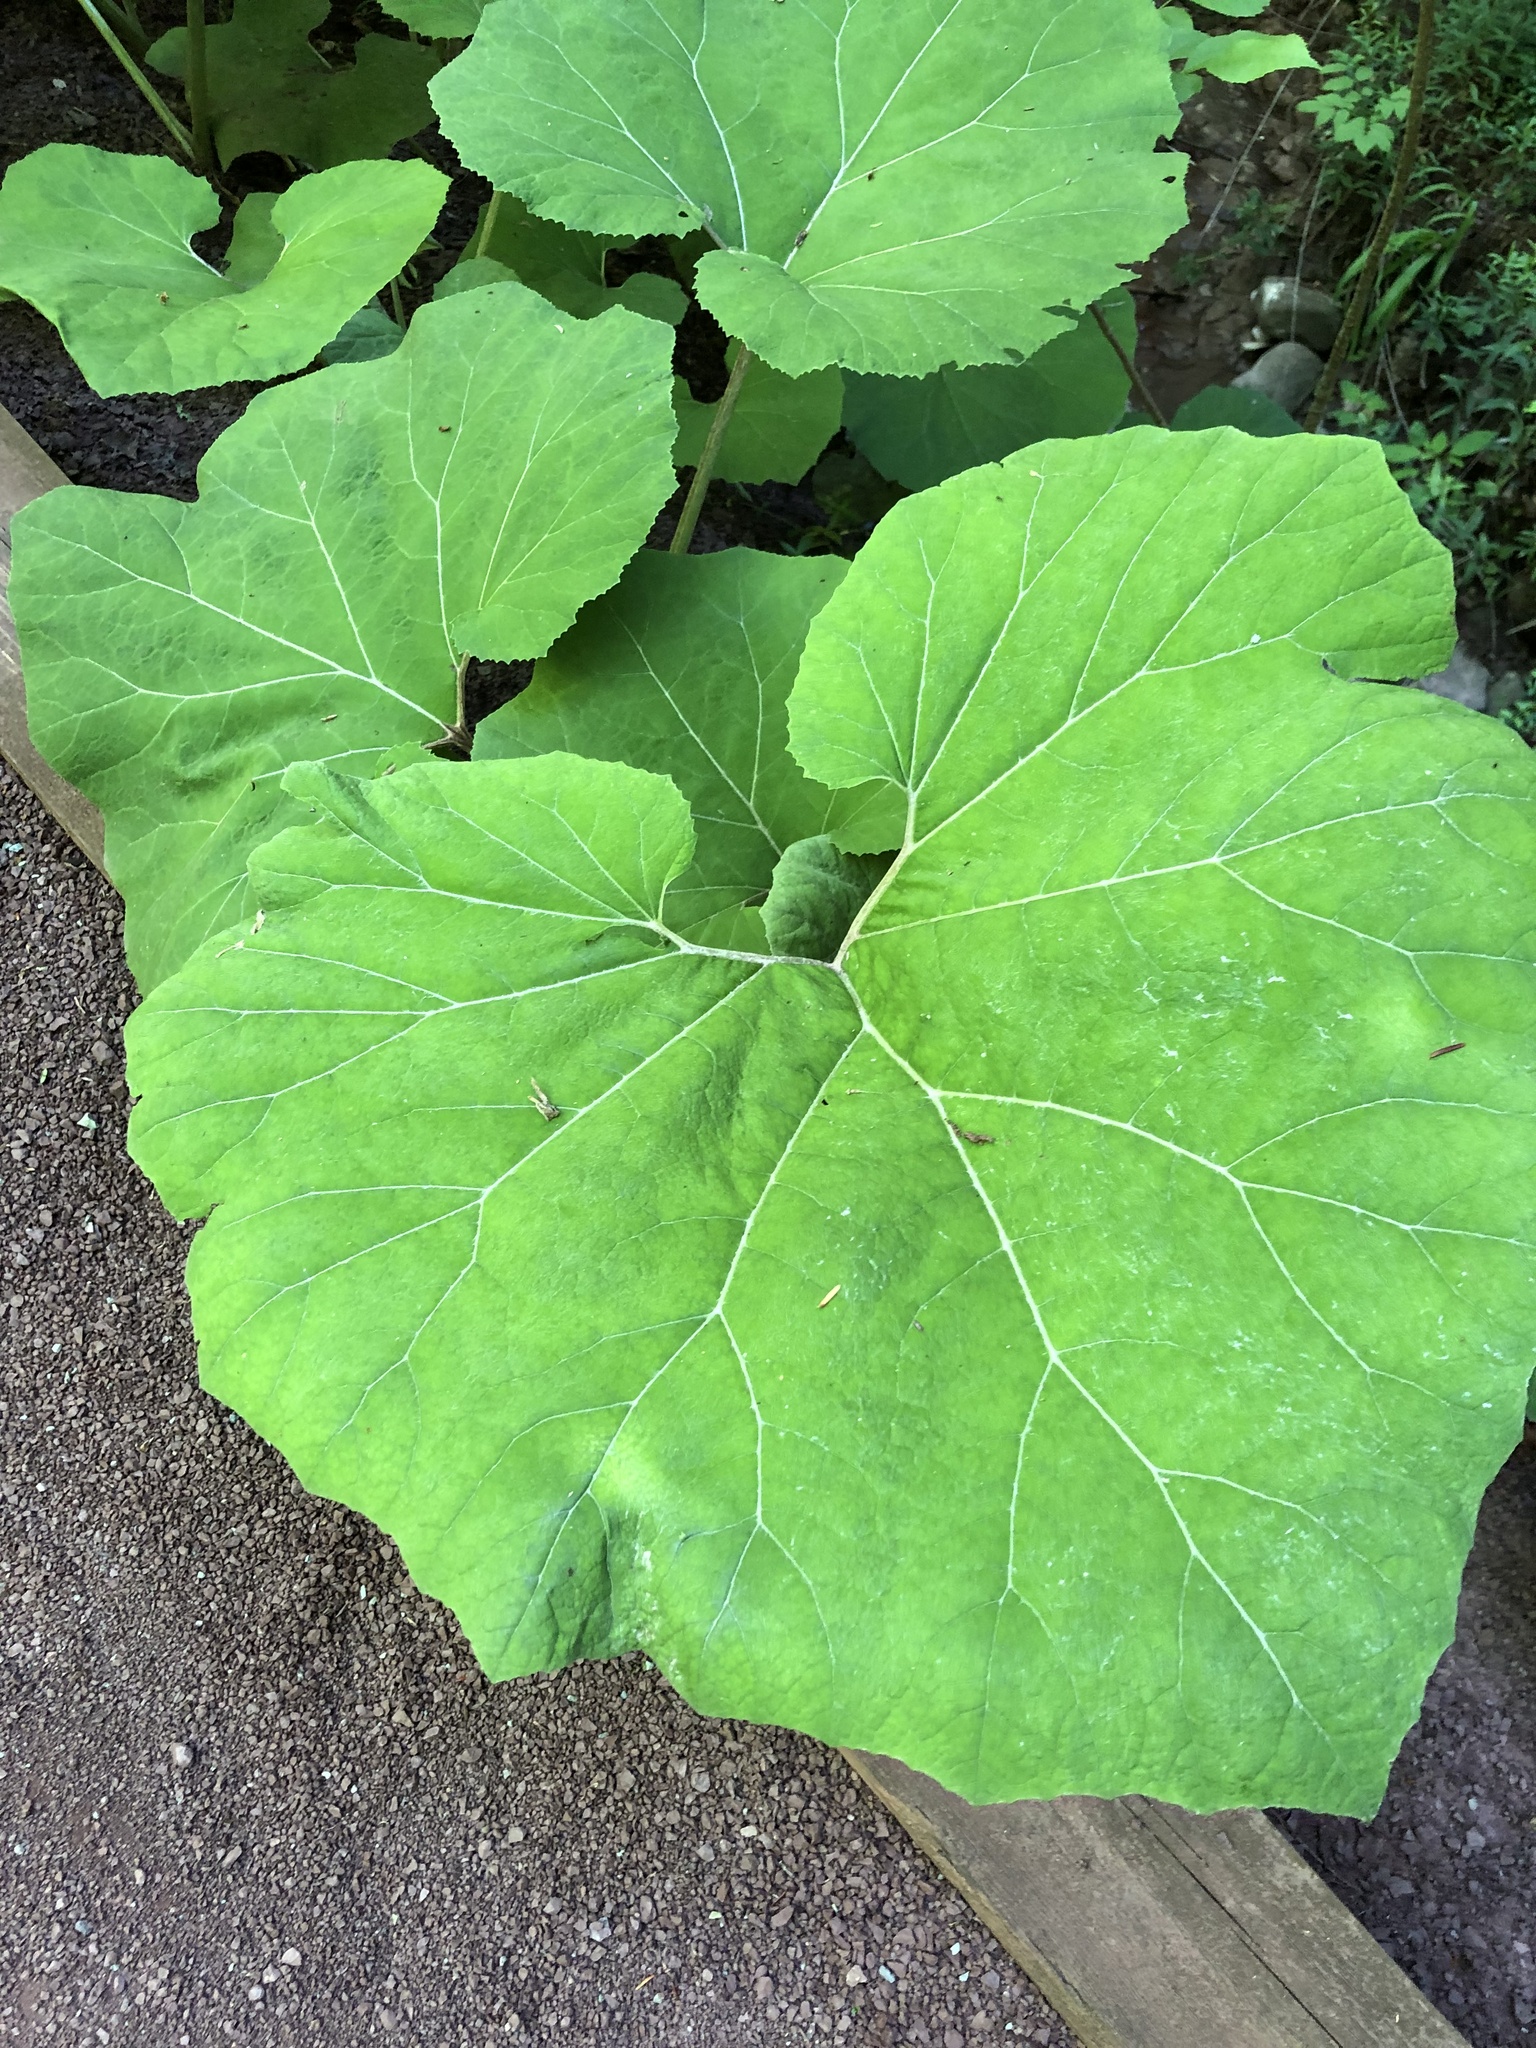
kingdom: Plantae
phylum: Tracheophyta
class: Magnoliopsida
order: Asterales
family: Asteraceae
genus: Petasites
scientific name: Petasites hybridus
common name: Butterbur
